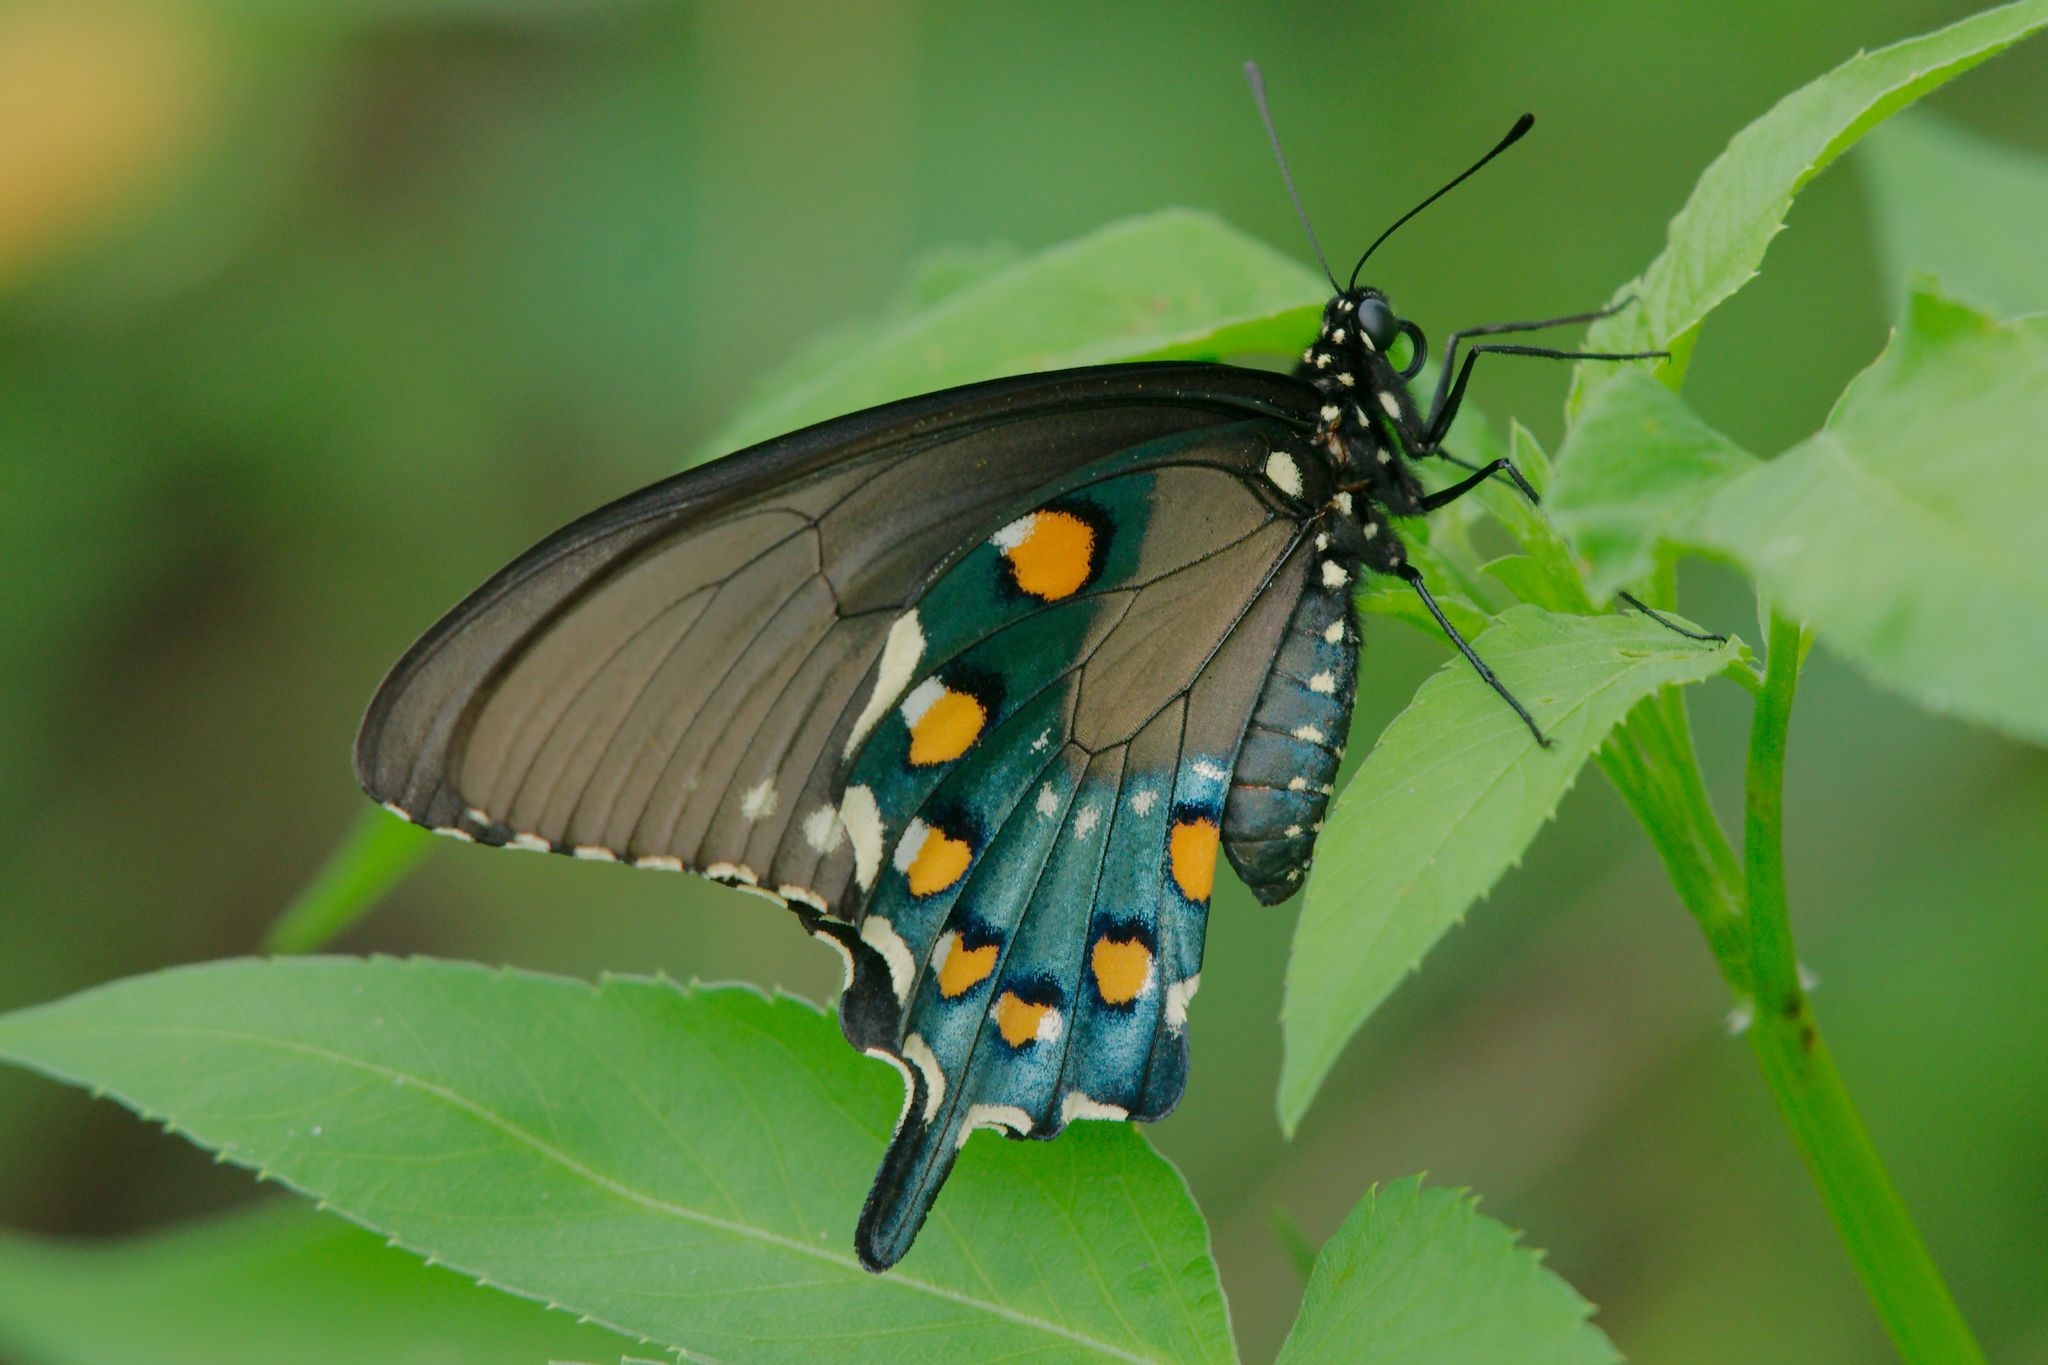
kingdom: Animalia
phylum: Arthropoda
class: Insecta
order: Lepidoptera
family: Papilionidae
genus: Battus
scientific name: Battus philenor
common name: Pipevine swallowtail
